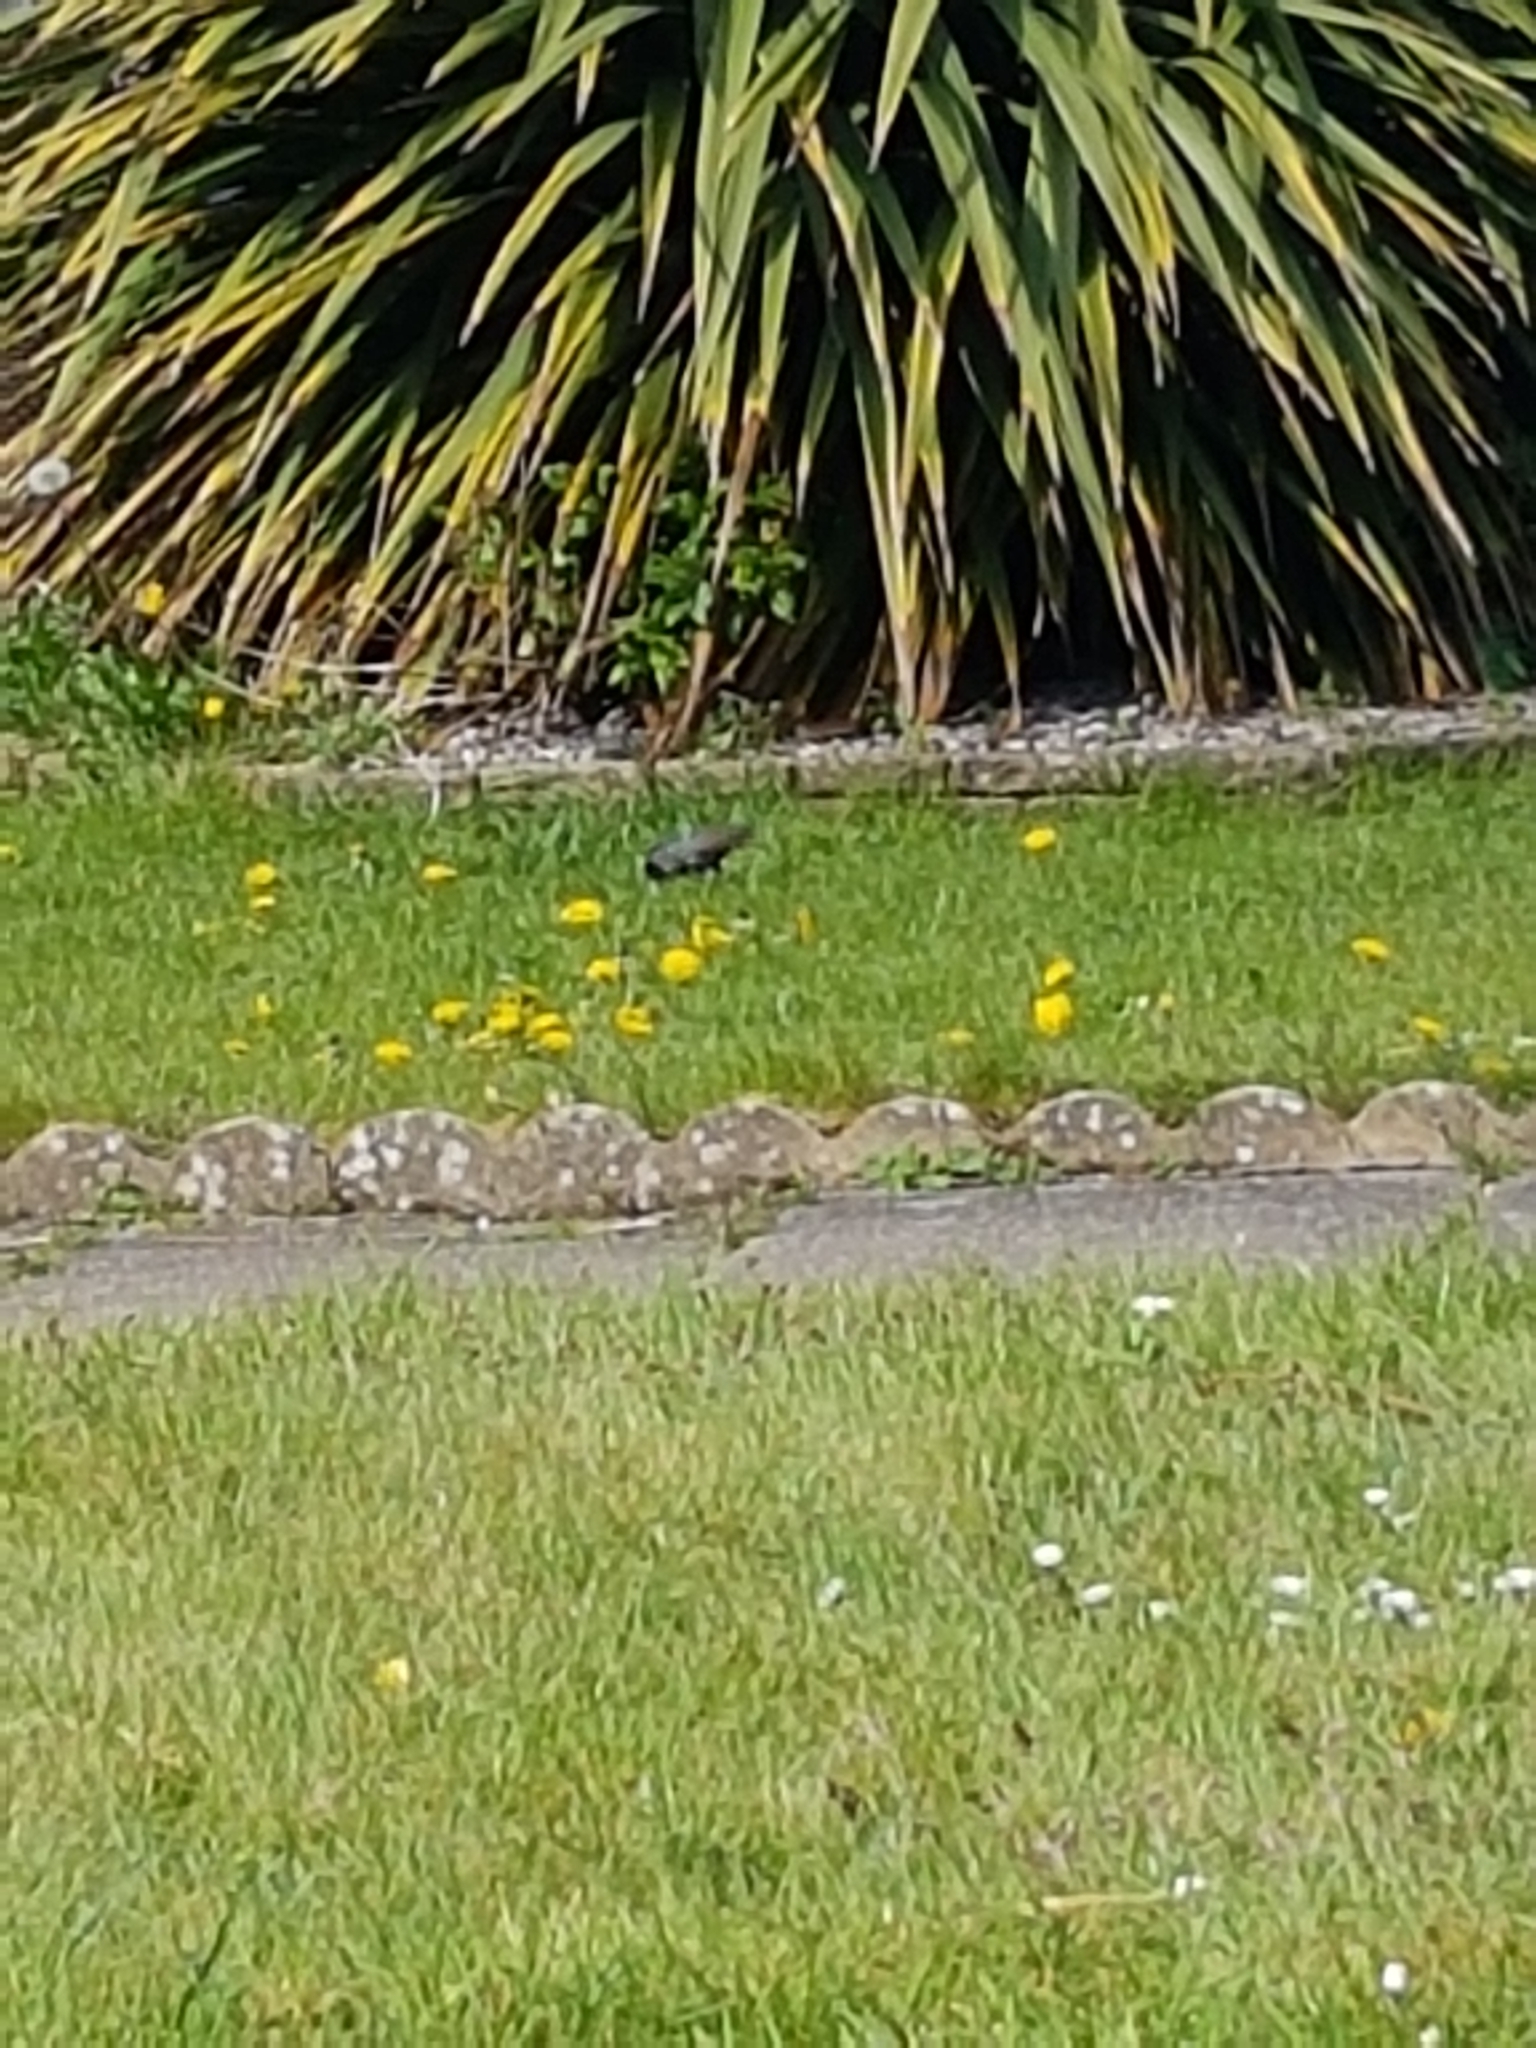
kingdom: Animalia
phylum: Chordata
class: Aves
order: Passeriformes
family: Sturnidae
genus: Sturnus
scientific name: Sturnus vulgaris
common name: Common starling
